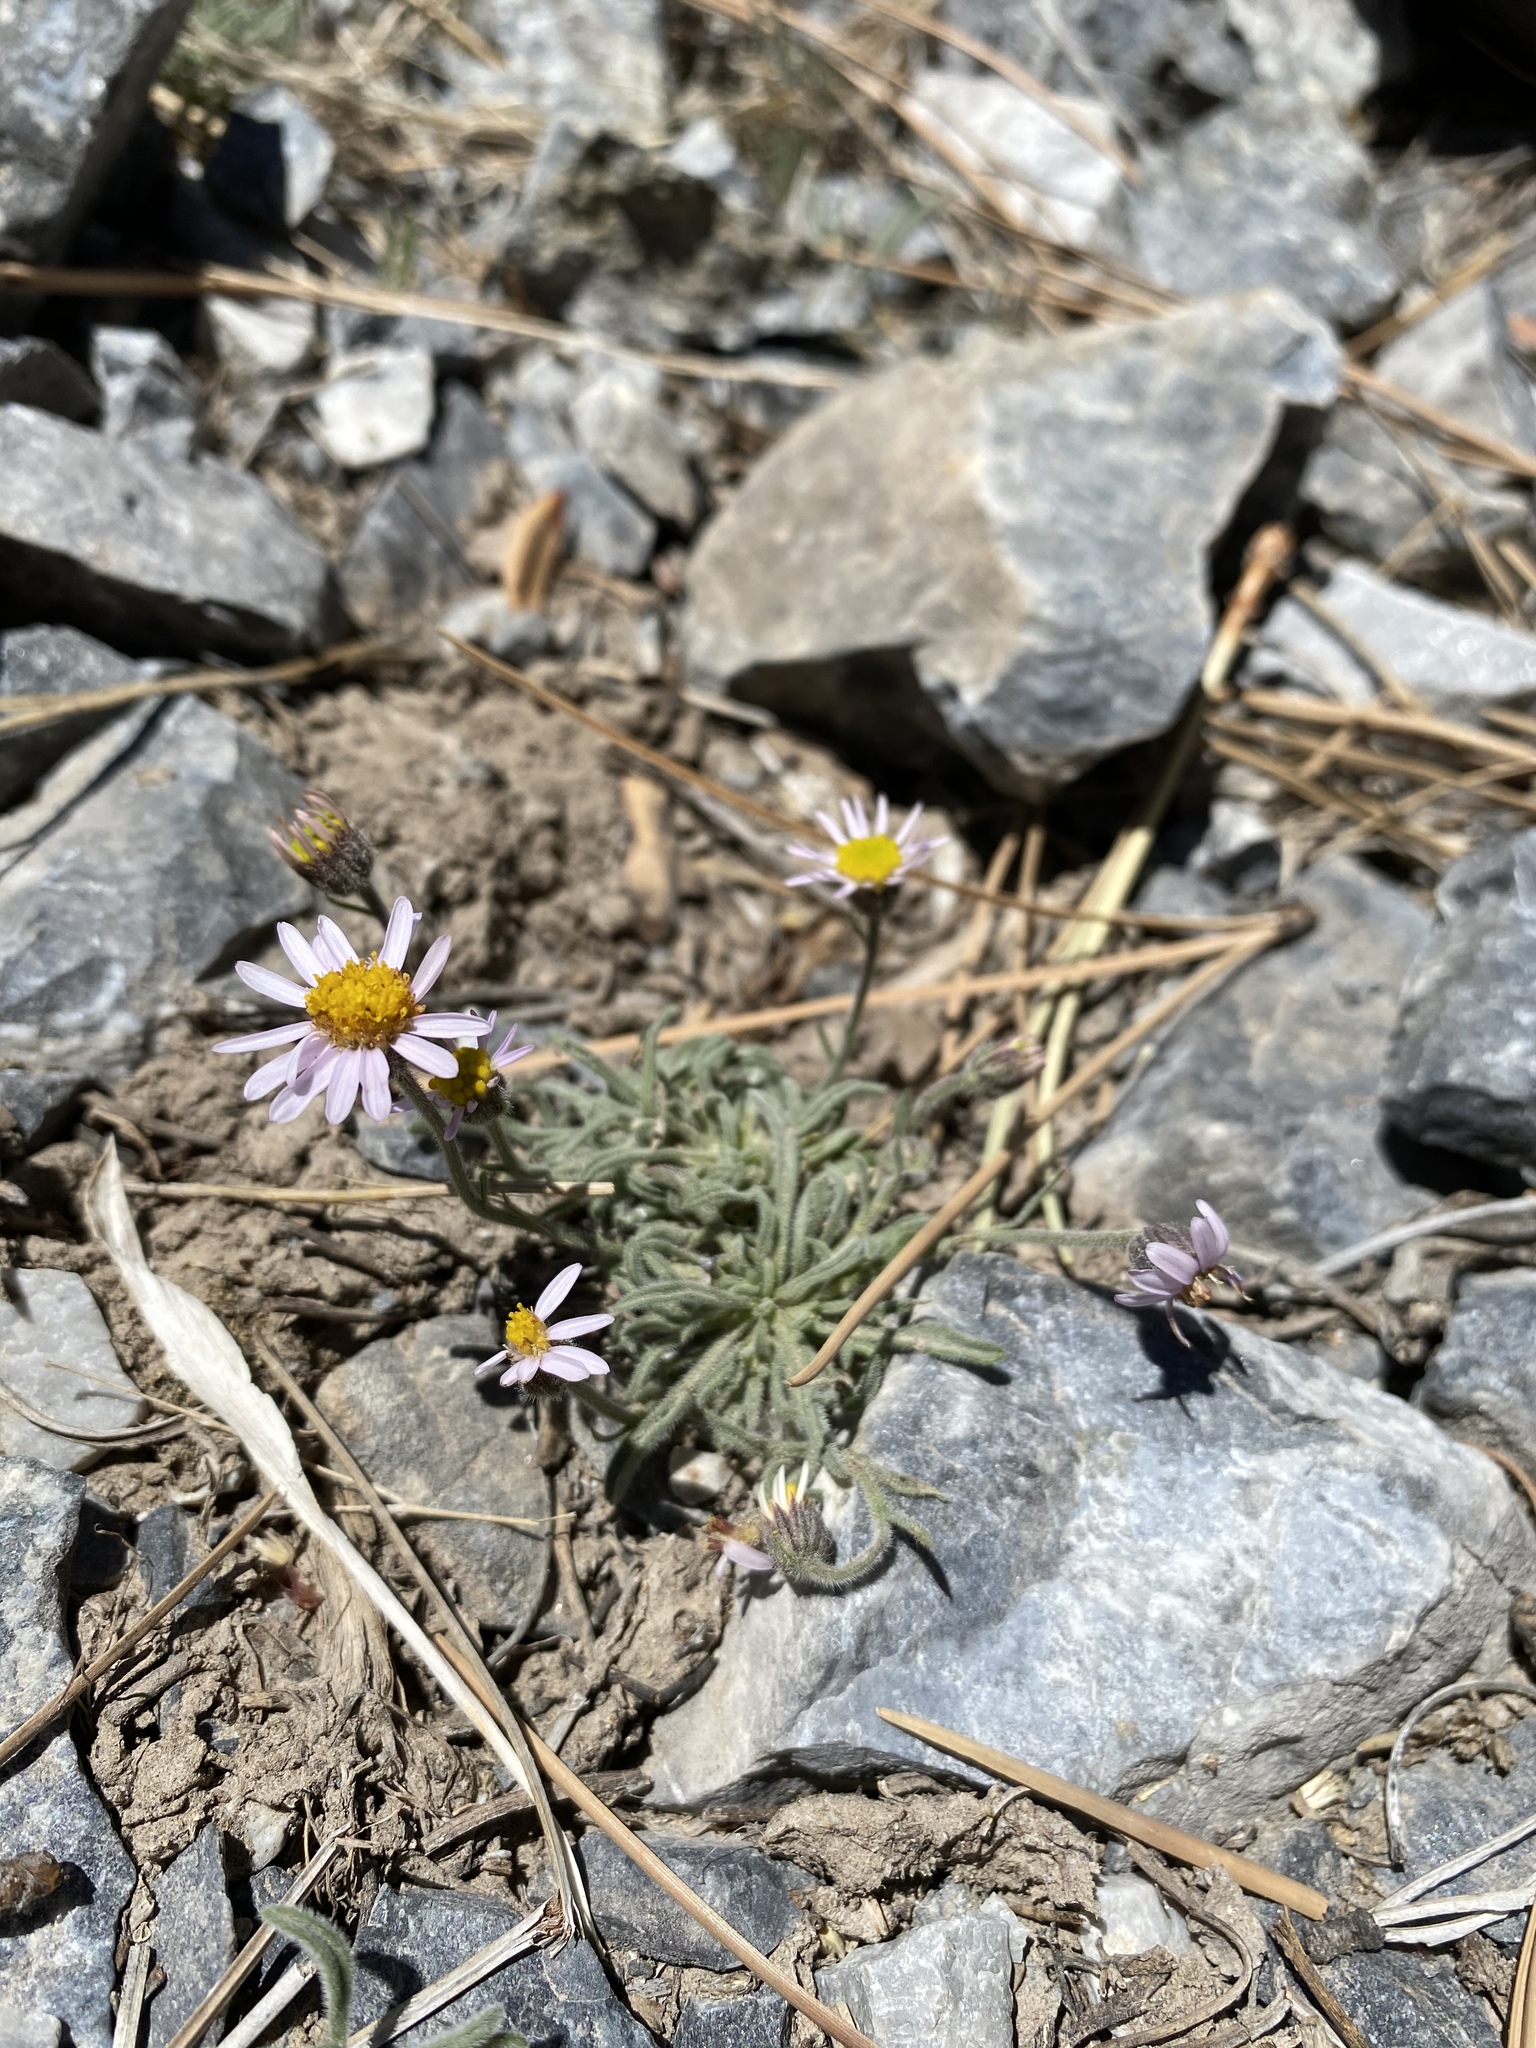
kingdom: Plantae
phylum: Tracheophyta
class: Magnoliopsida
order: Asterales
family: Asteraceae
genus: Erigeron
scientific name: Erigeron clokeyi
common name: Clokey's fleabane
